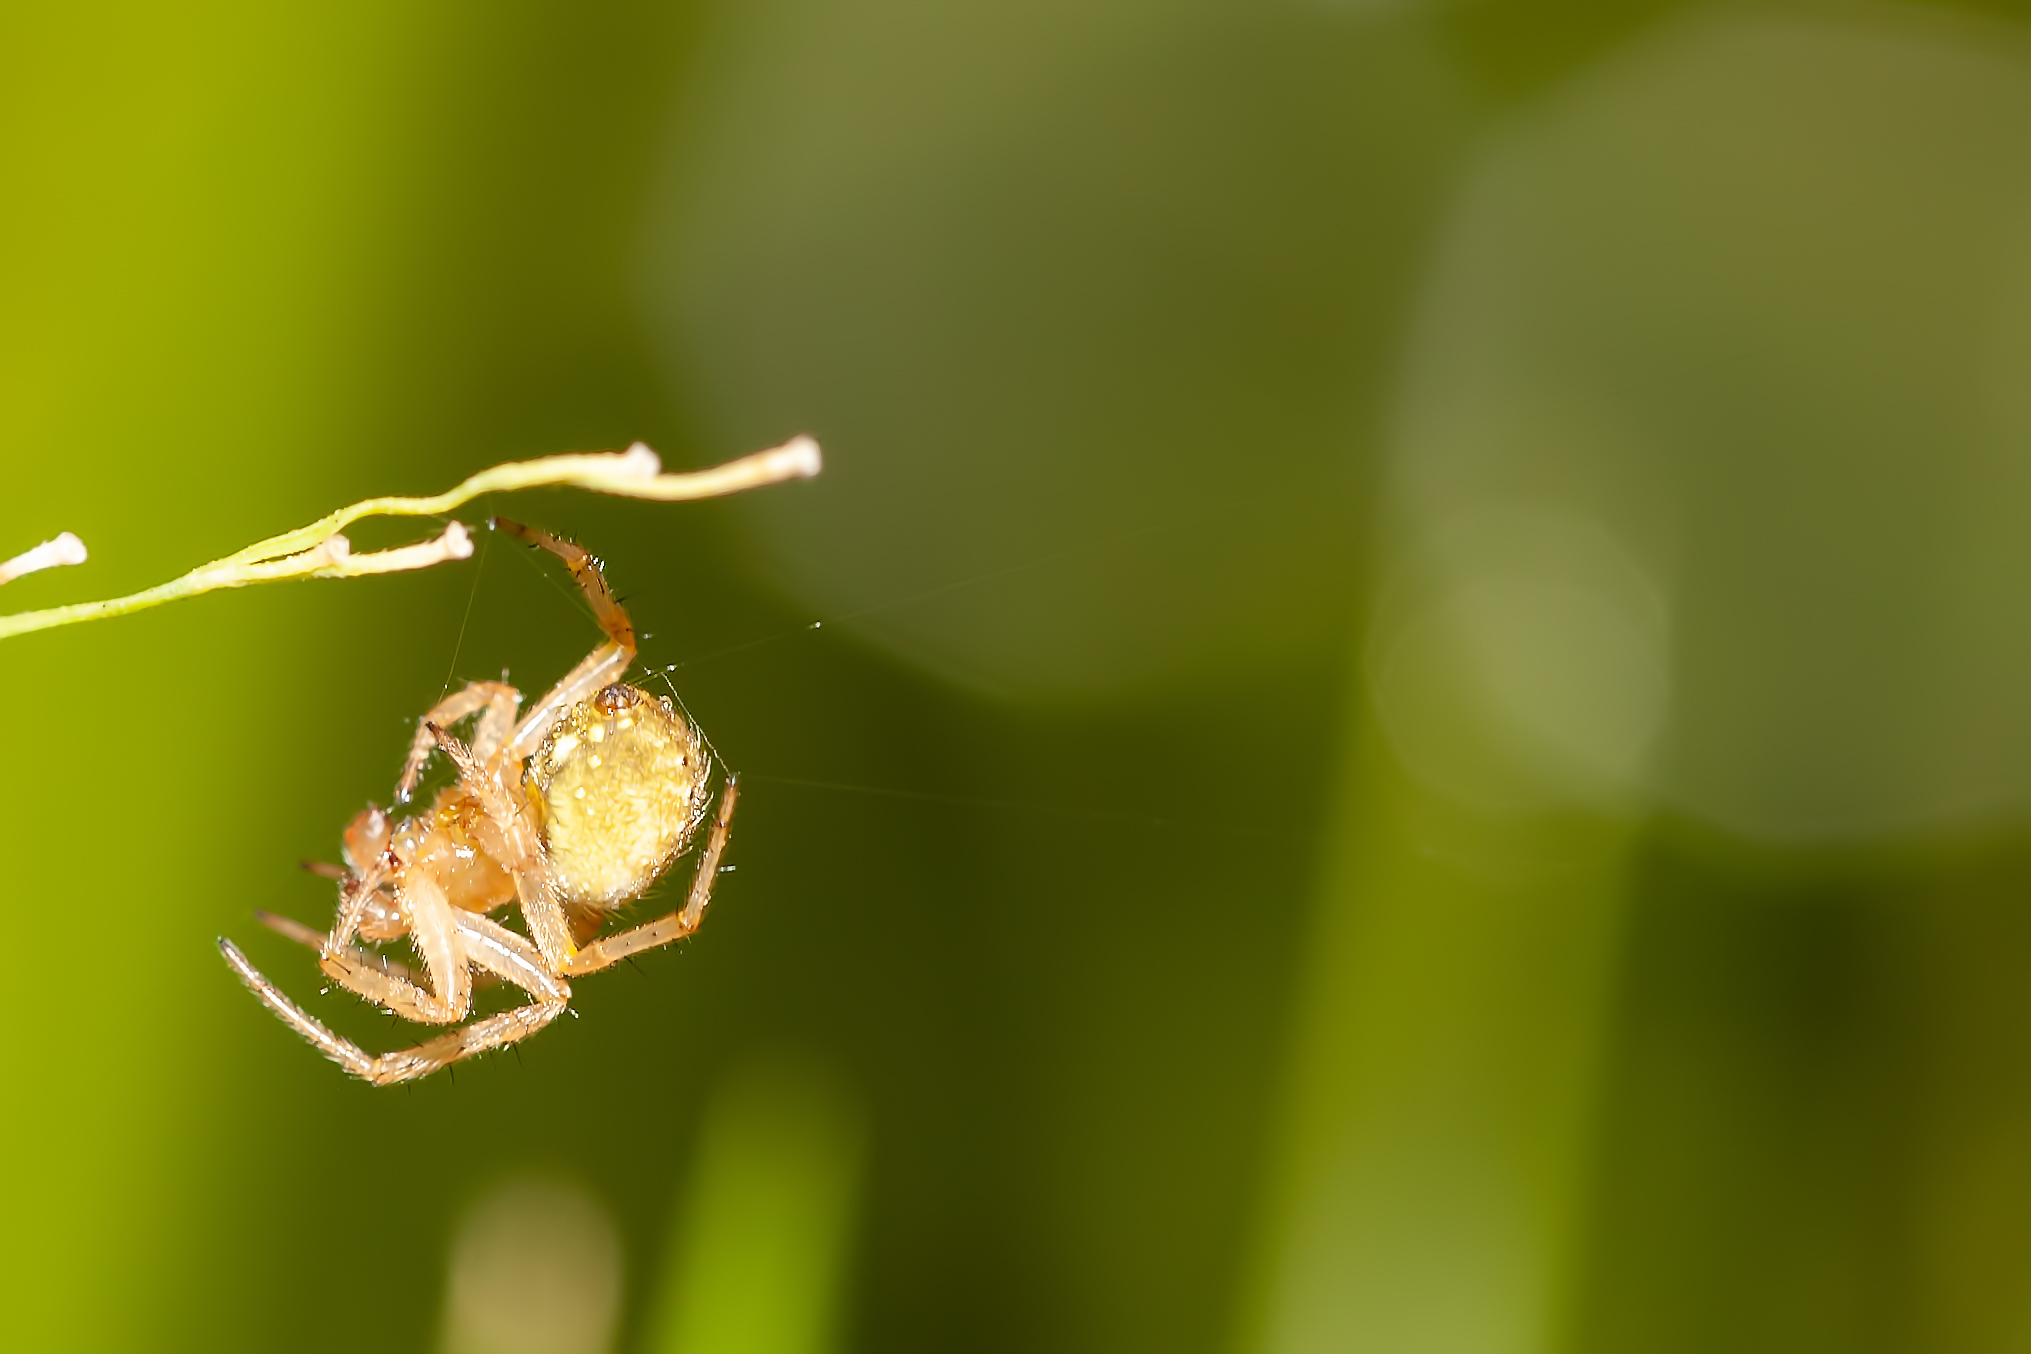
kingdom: Animalia
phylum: Arthropoda
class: Arachnida
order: Araneae
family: Araneidae
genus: Neoscona
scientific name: Neoscona arabesca
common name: Orb weavers
